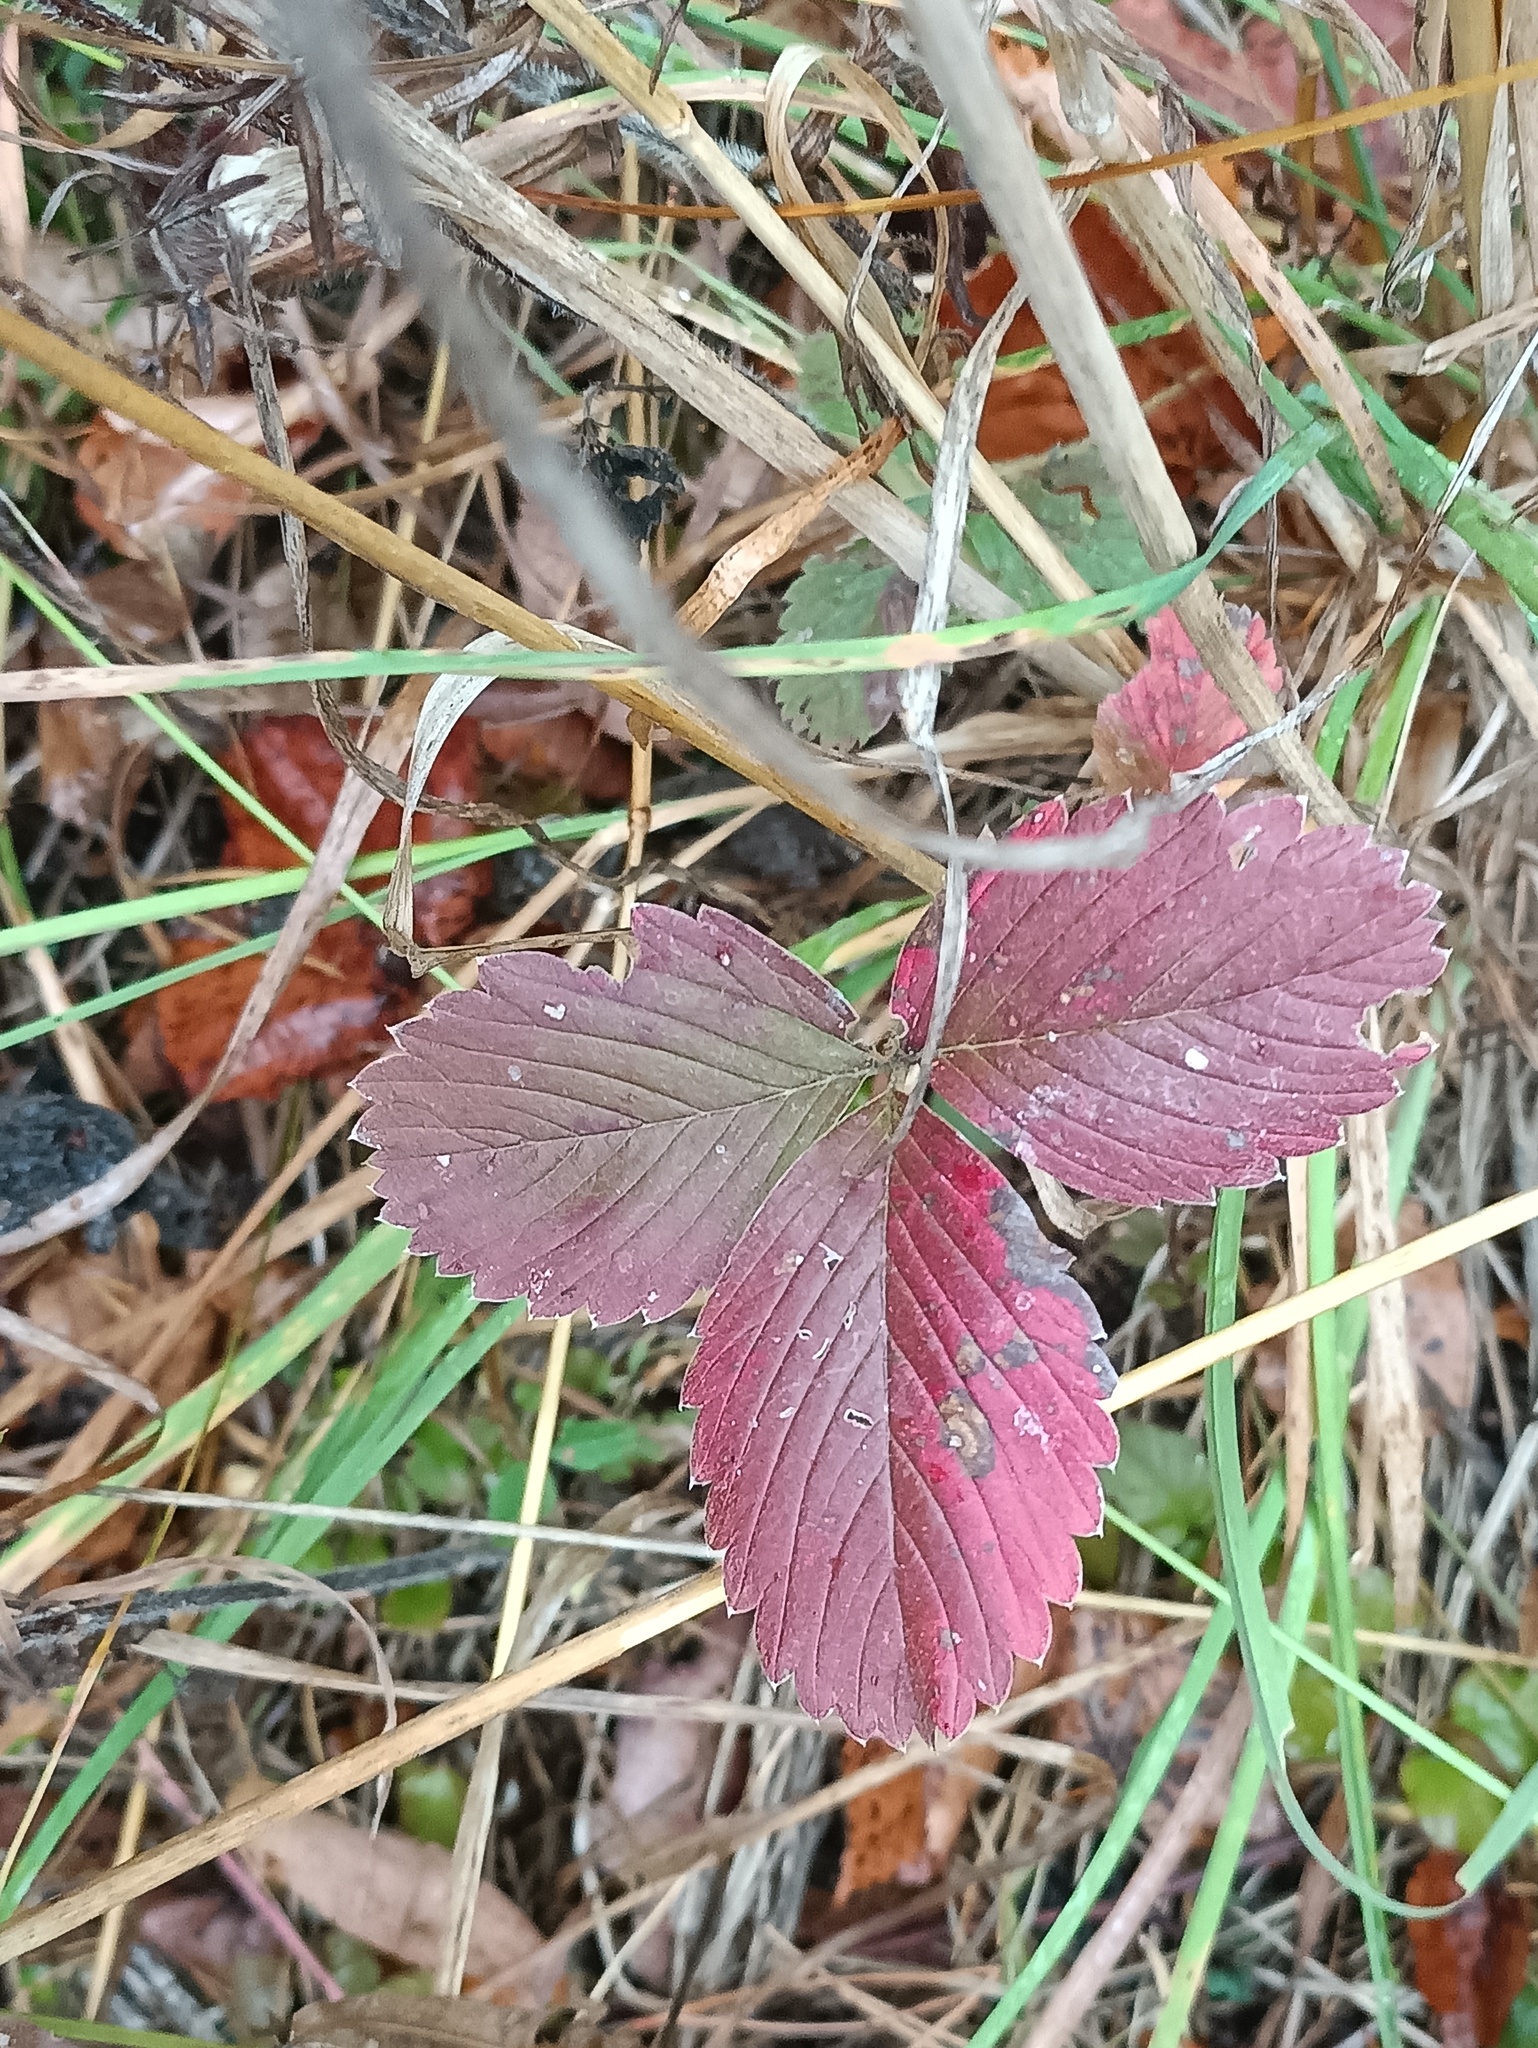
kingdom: Plantae
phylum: Tracheophyta
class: Magnoliopsida
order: Rosales
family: Rosaceae
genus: Fragaria
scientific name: Fragaria viridis
